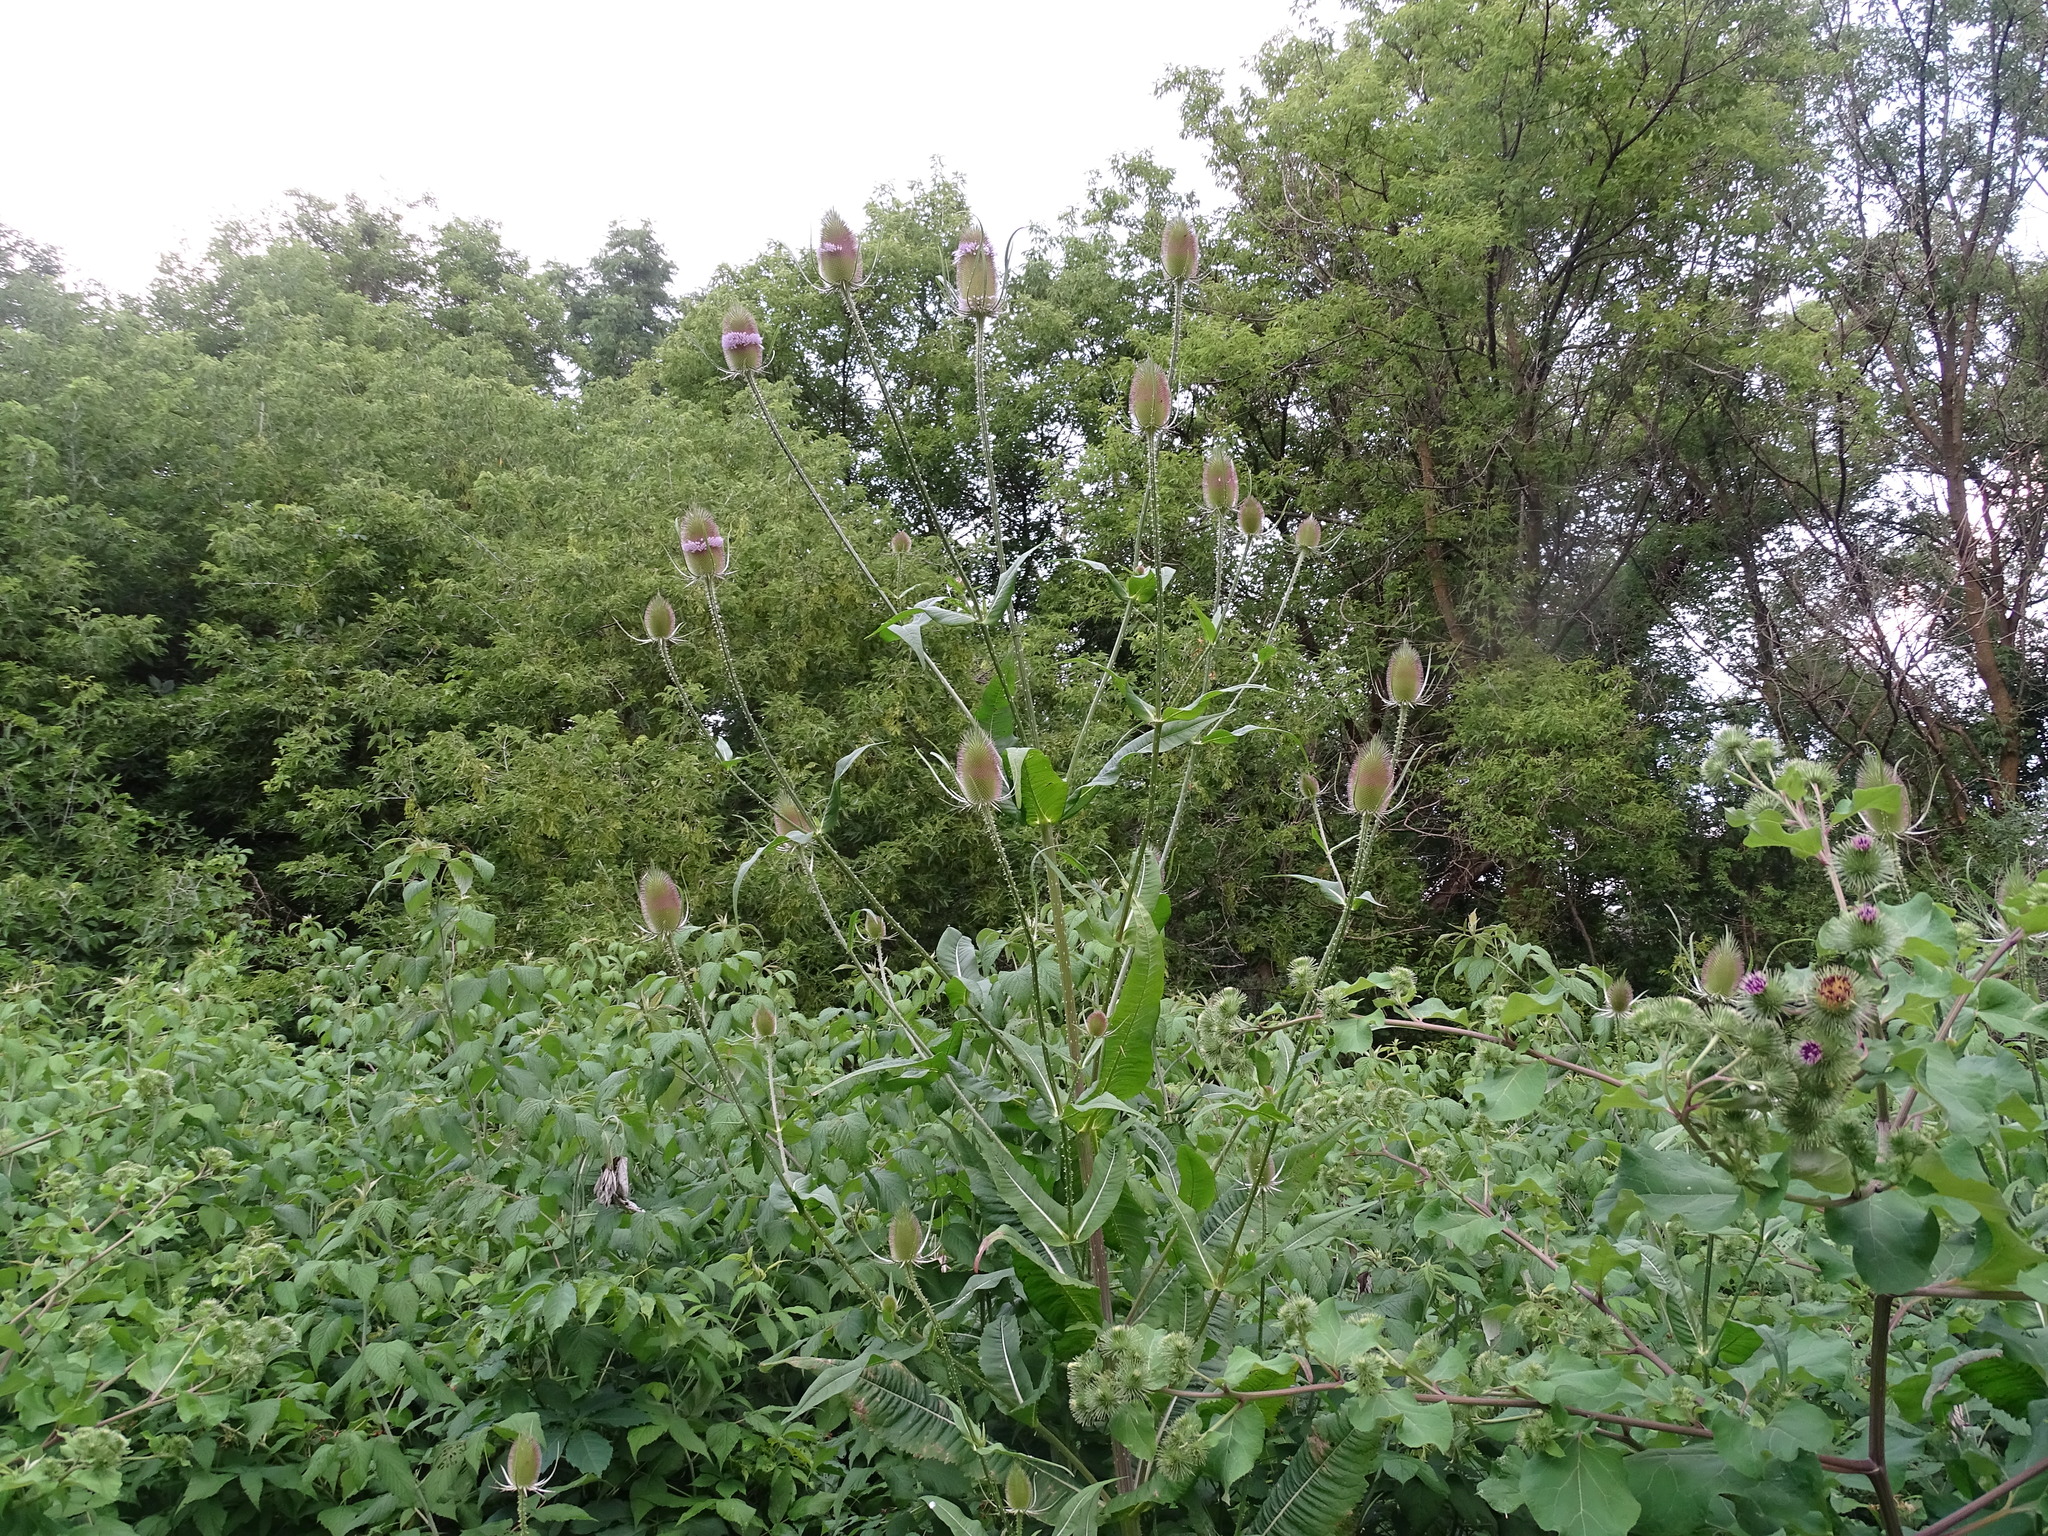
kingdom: Plantae
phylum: Tracheophyta
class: Magnoliopsida
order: Dipsacales
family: Caprifoliaceae
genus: Dipsacus
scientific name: Dipsacus fullonum
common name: Teasel
